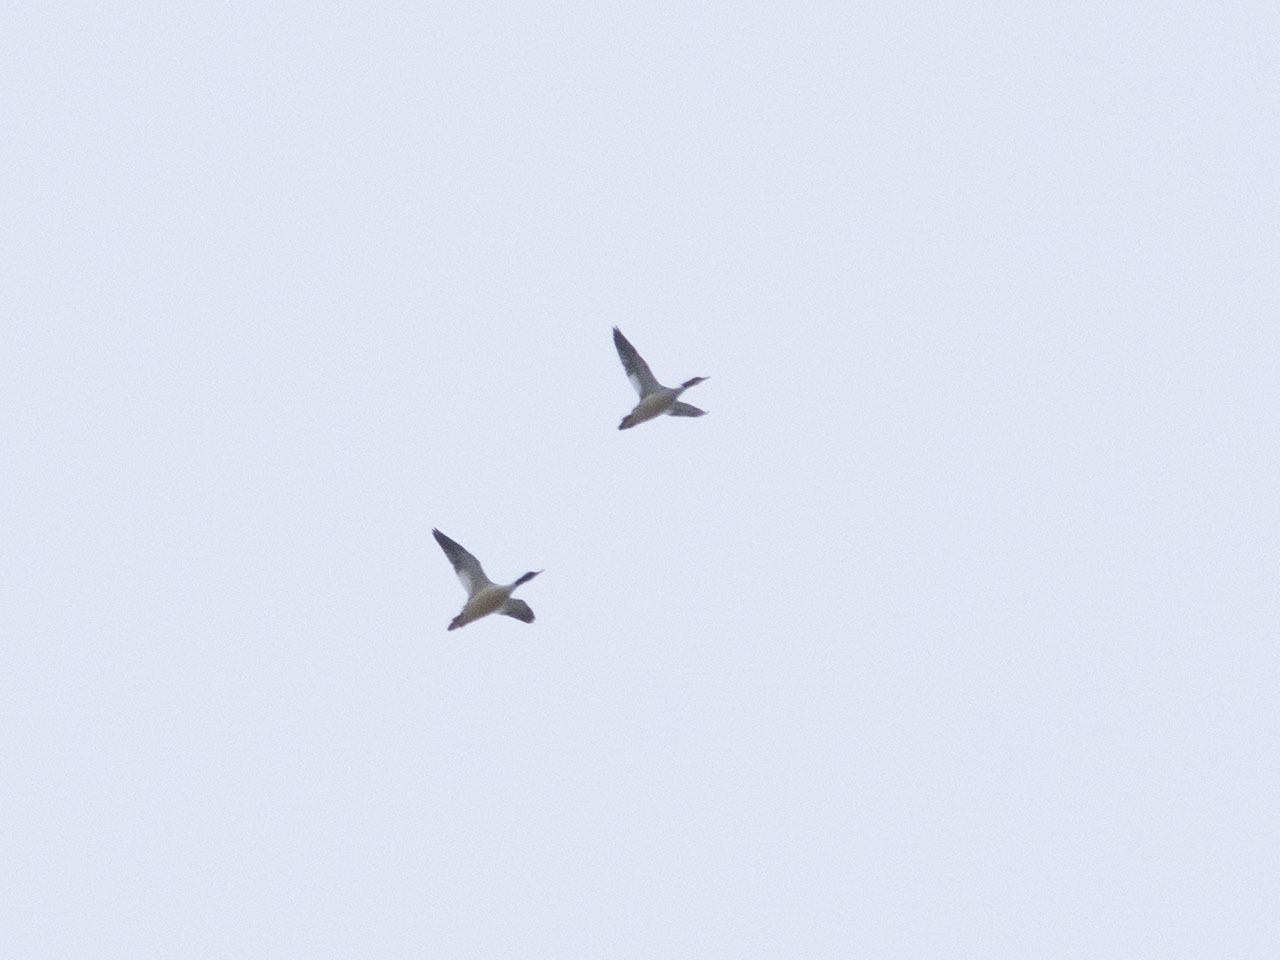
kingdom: Animalia
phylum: Chordata
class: Aves
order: Anseriformes
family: Anatidae
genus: Mergus
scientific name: Mergus merganser
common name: Common merganser
